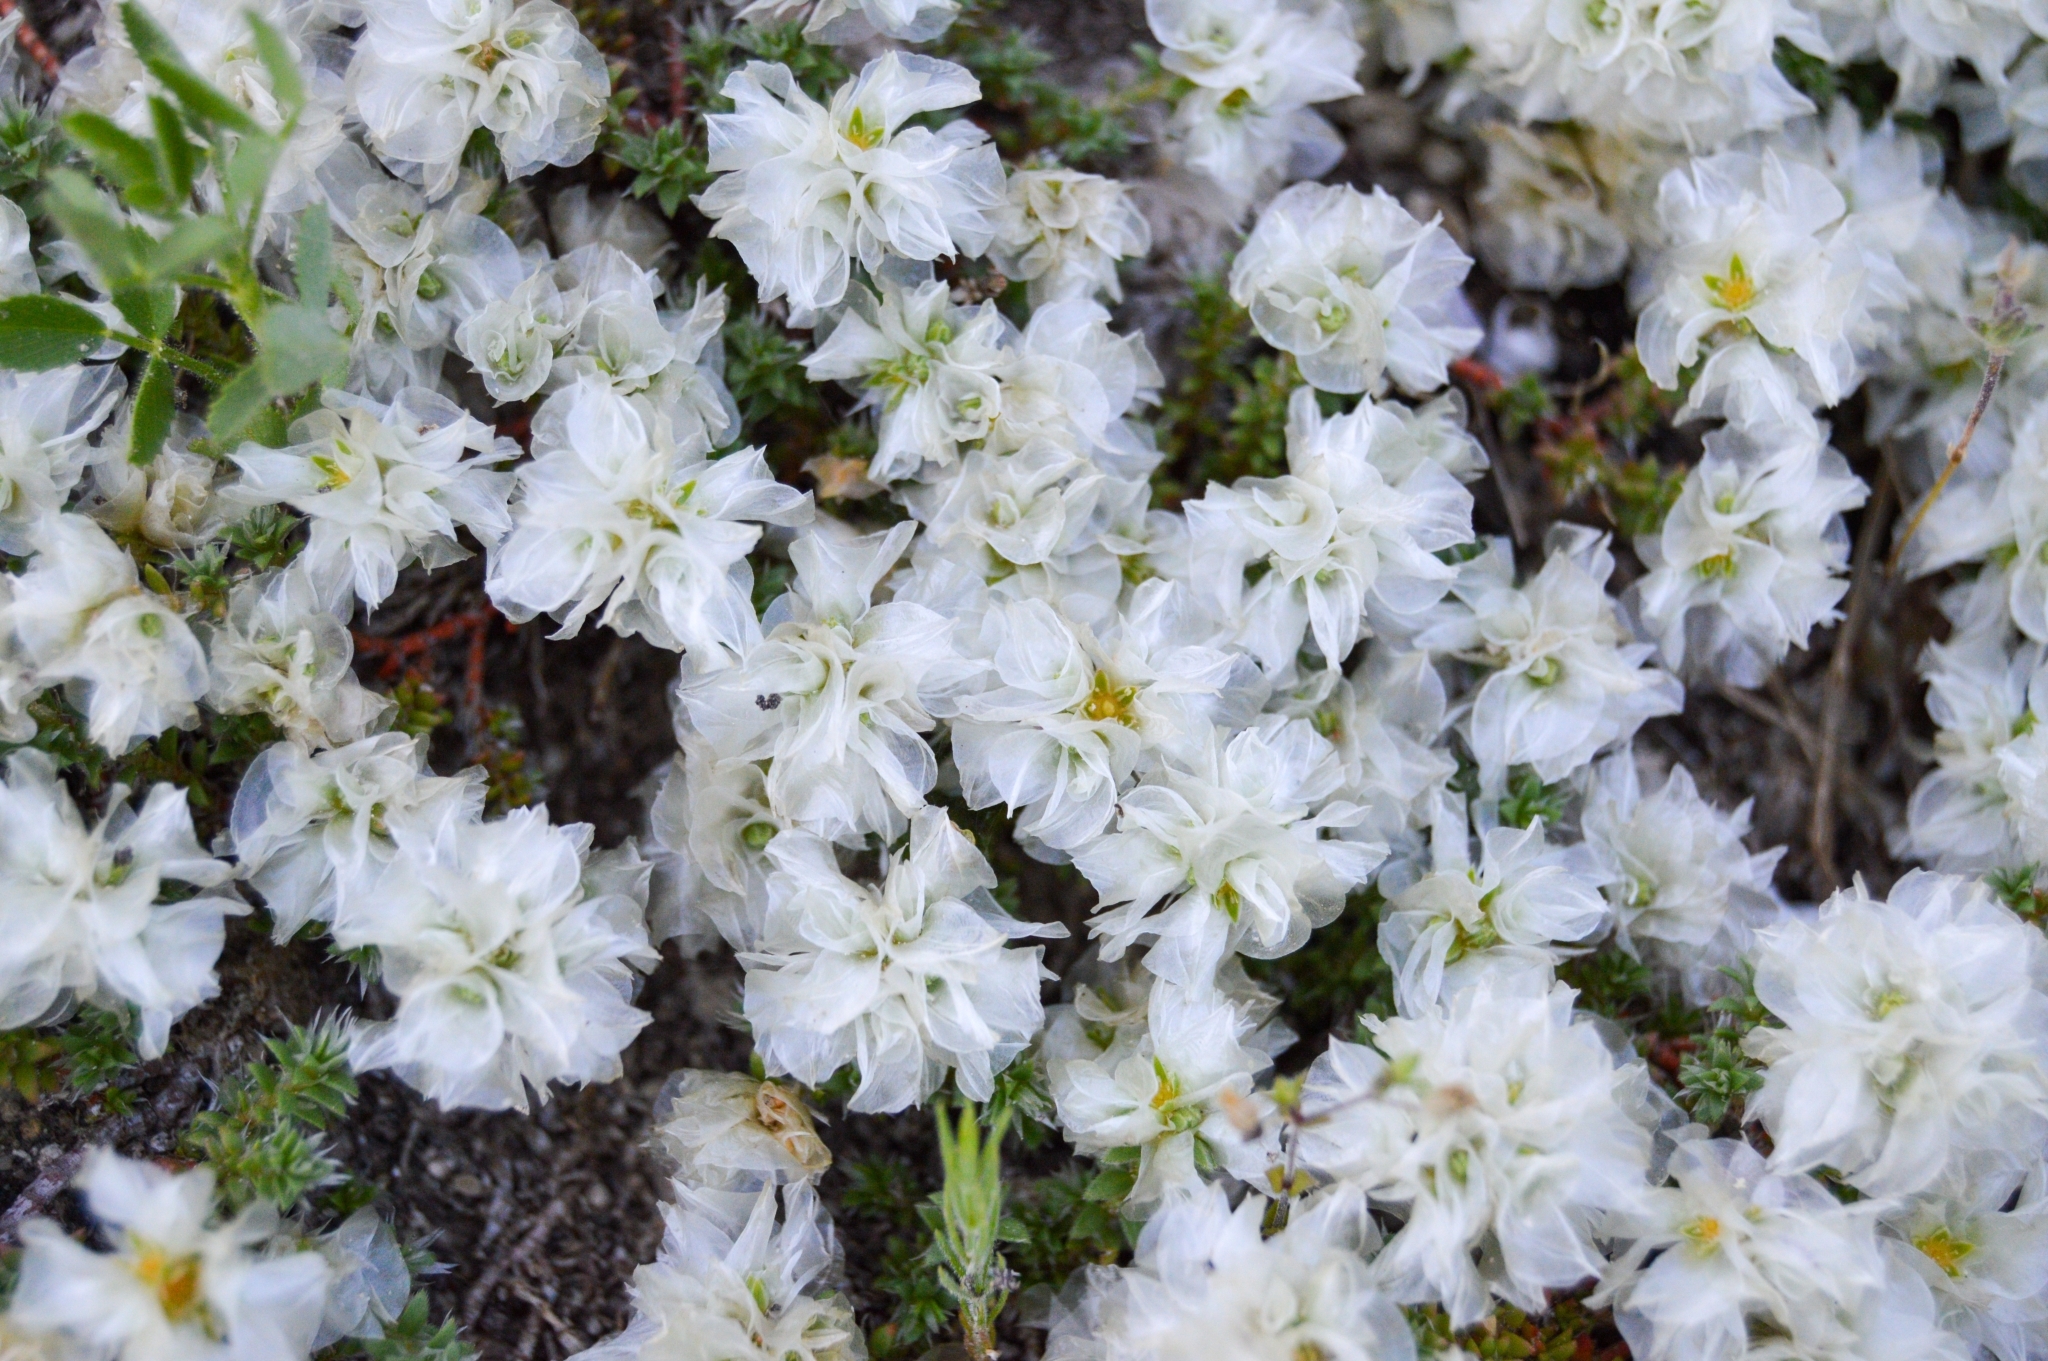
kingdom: Plantae
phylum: Tracheophyta
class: Magnoliopsida
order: Caryophyllales
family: Caryophyllaceae
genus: Paronychia
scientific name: Paronychia cephalotes
